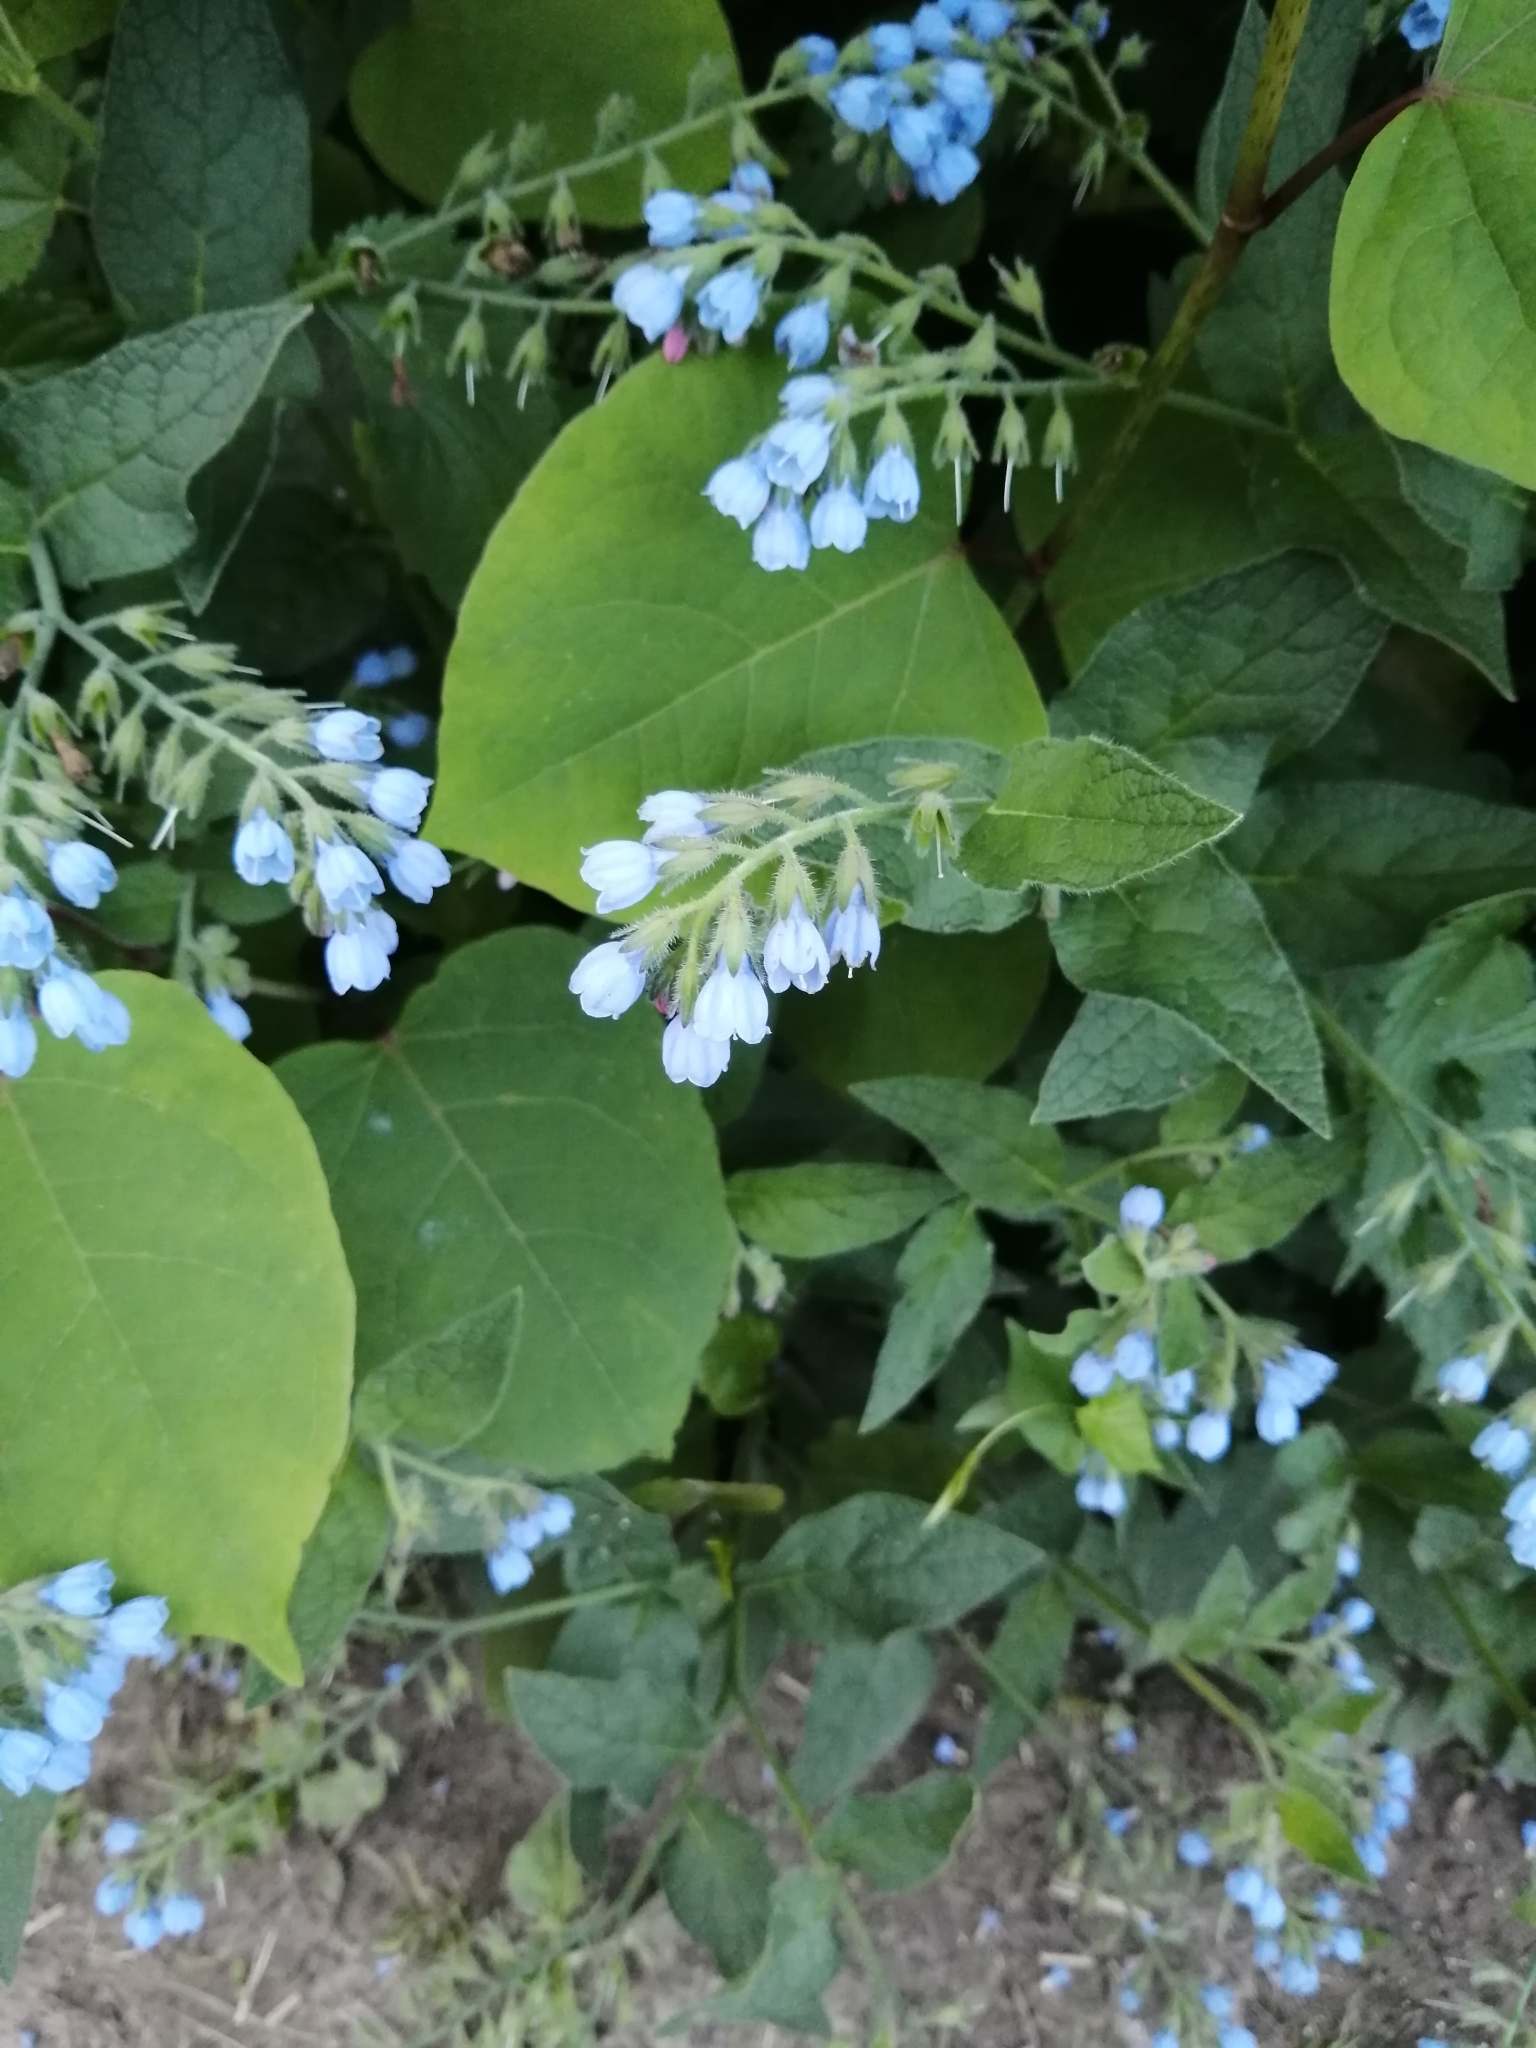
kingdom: Plantae
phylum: Tracheophyta
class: Magnoliopsida
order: Boraginales
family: Boraginaceae
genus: Symphytum
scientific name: Symphytum caucasicum
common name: Caucasian comfrey
